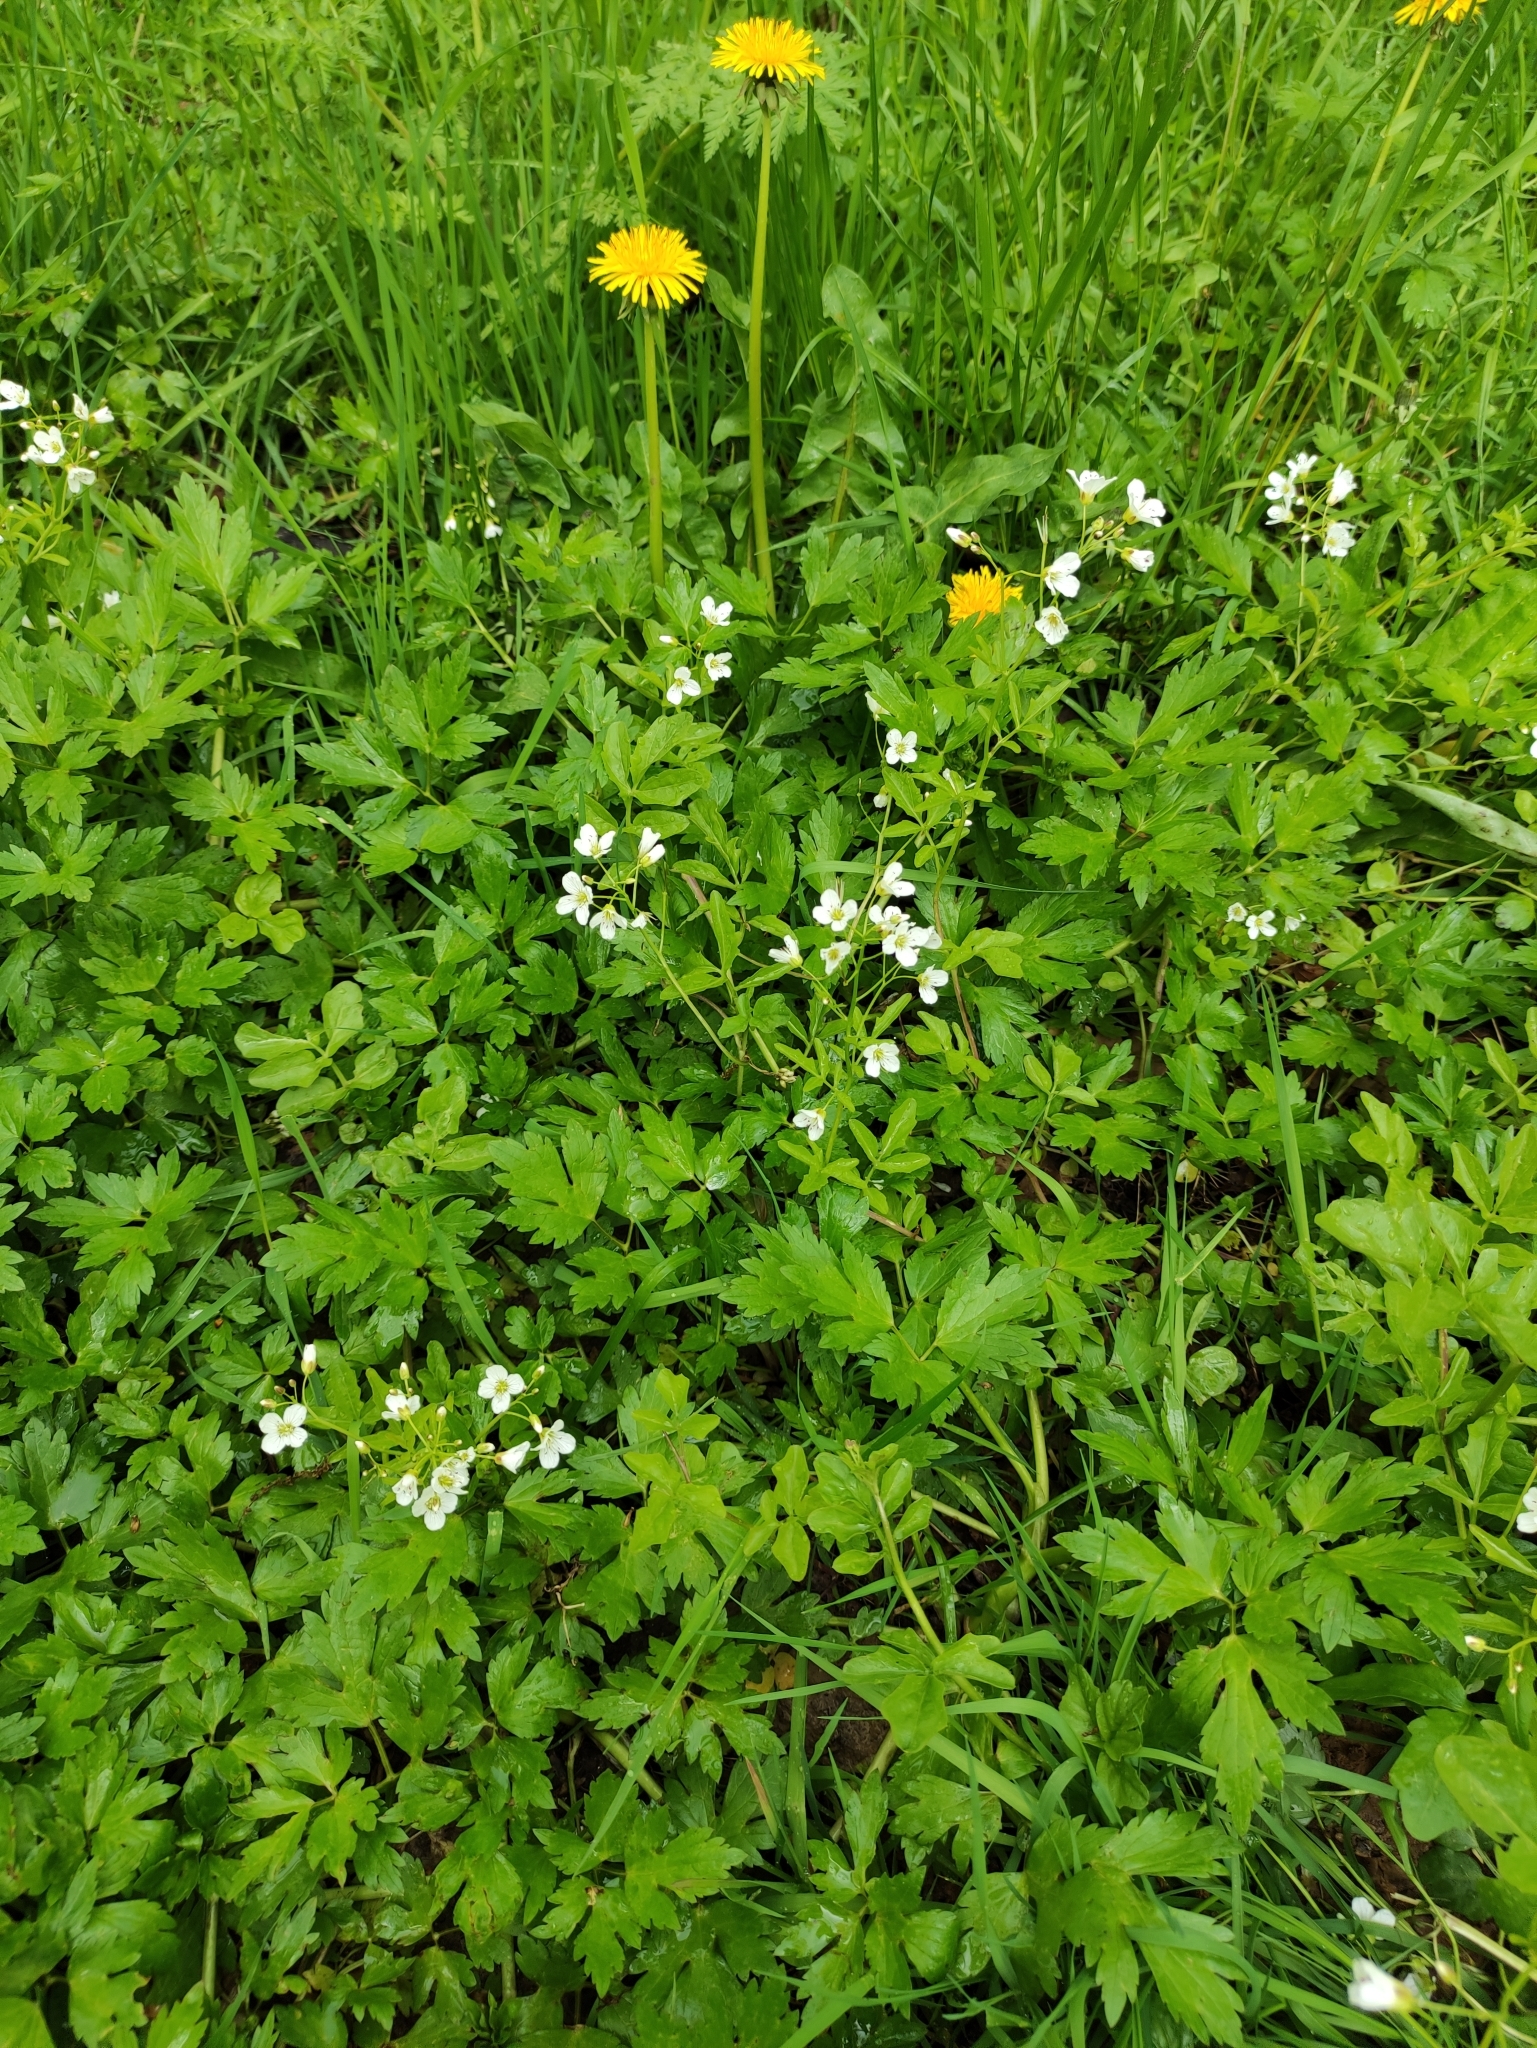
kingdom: Plantae
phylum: Tracheophyta
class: Magnoliopsida
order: Brassicales
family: Brassicaceae
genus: Cardamine
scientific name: Cardamine amara
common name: Large bitter-cress
